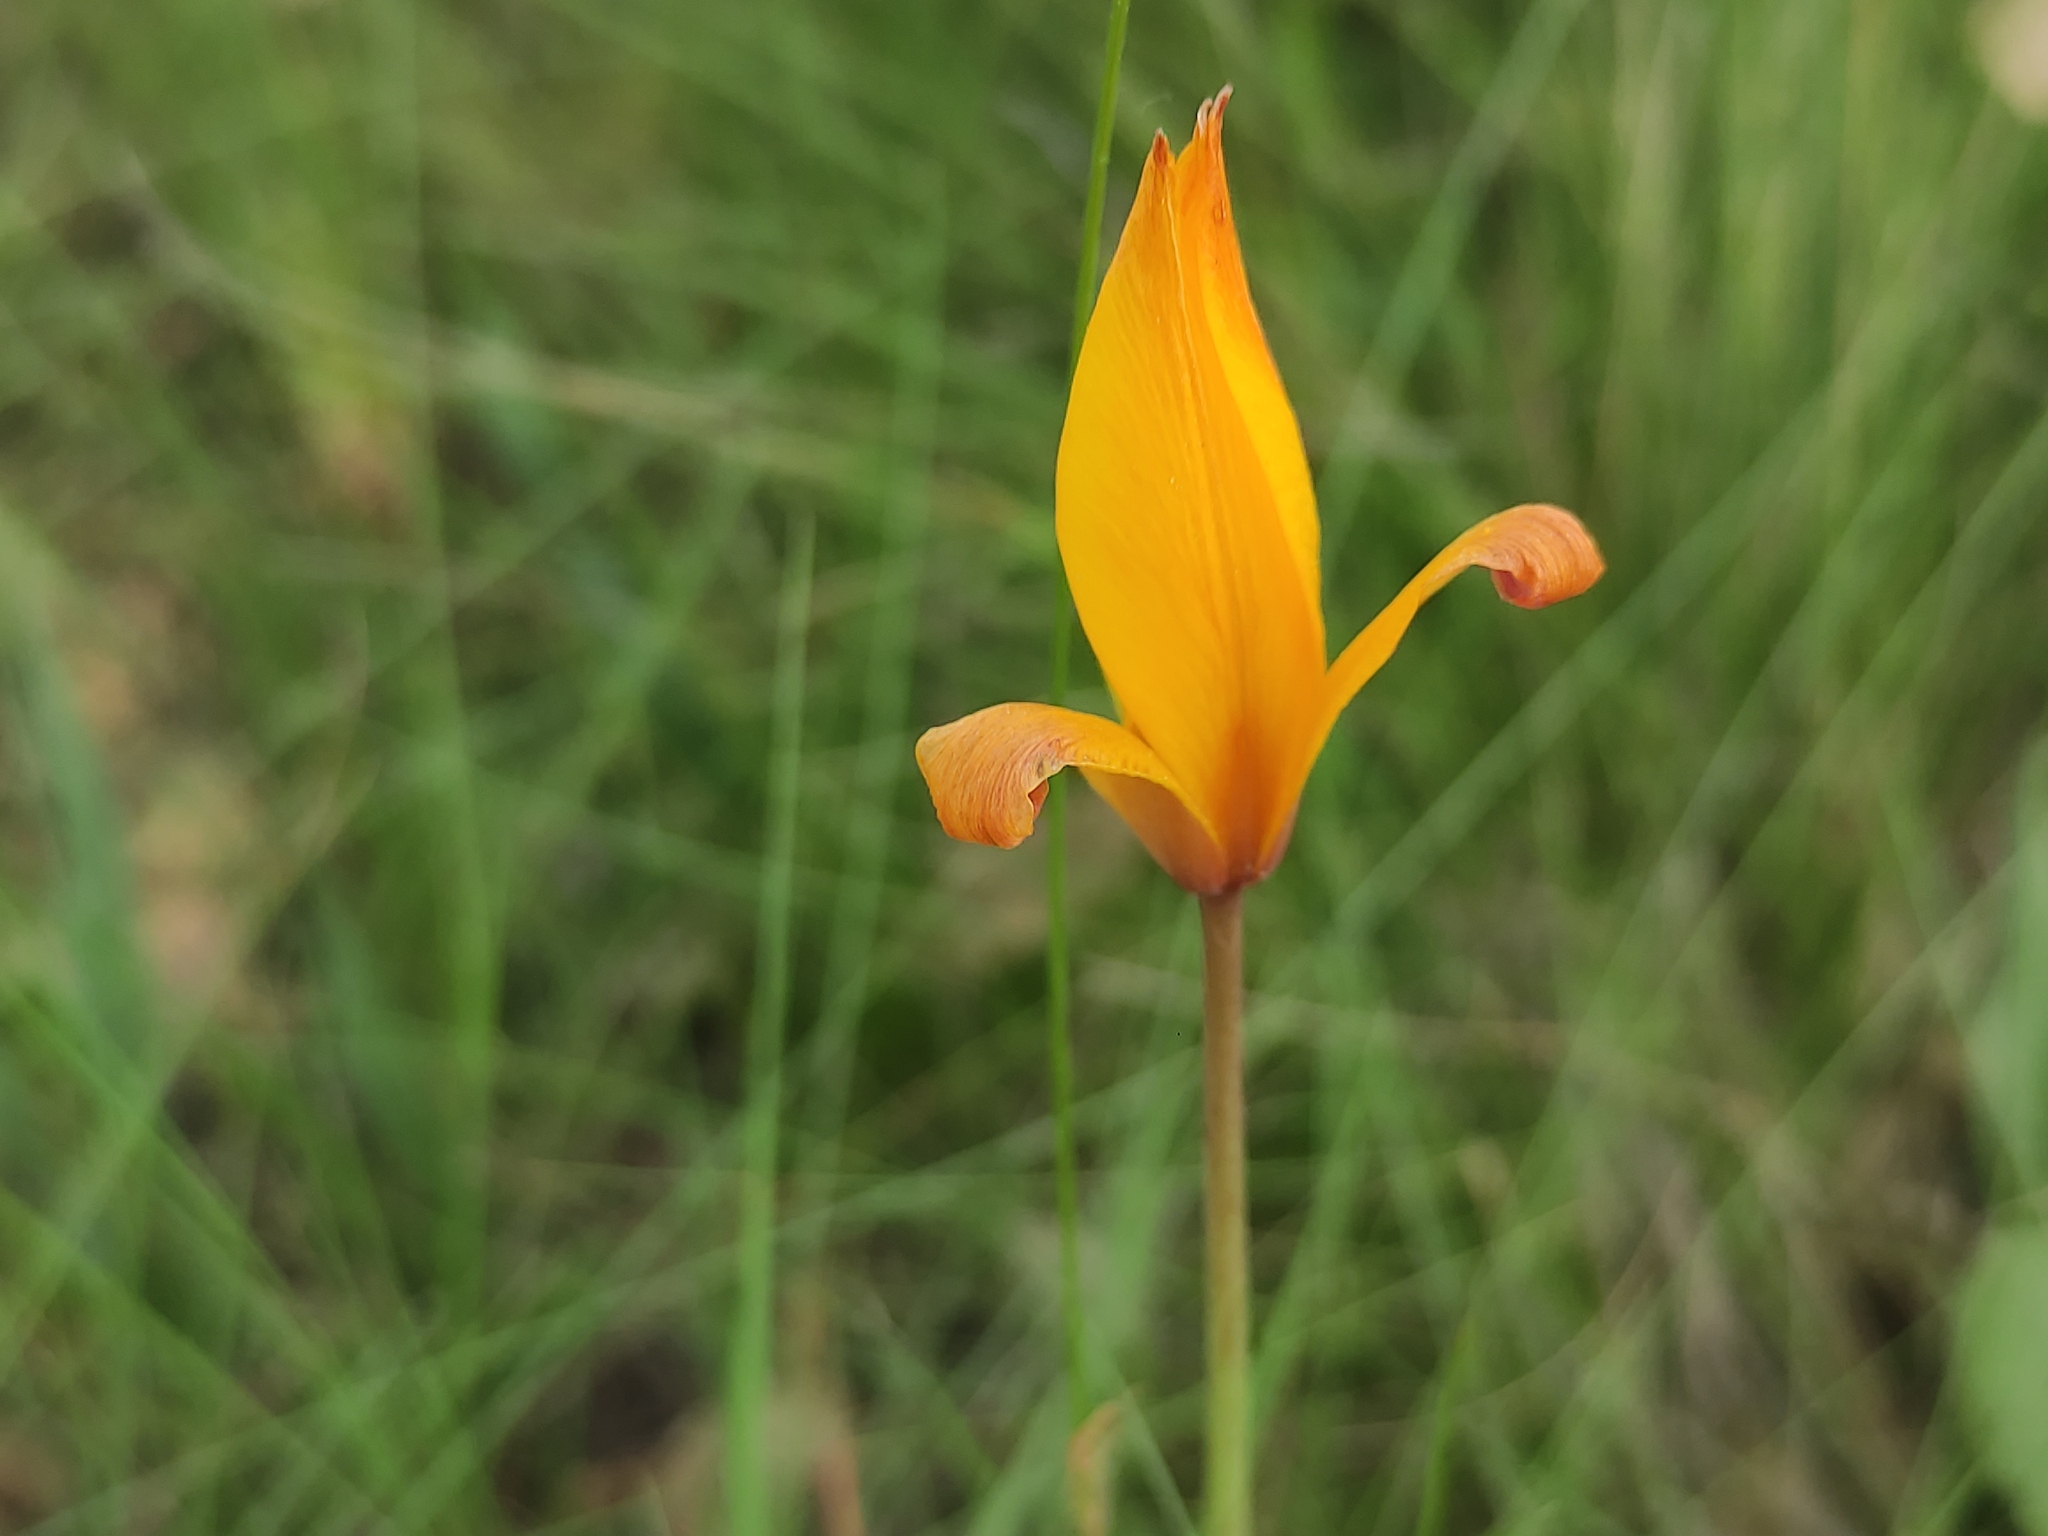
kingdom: Plantae
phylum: Tracheophyta
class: Liliopsida
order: Liliales
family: Liliaceae
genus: Tulipa
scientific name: Tulipa sylvestris
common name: Wild tulip
